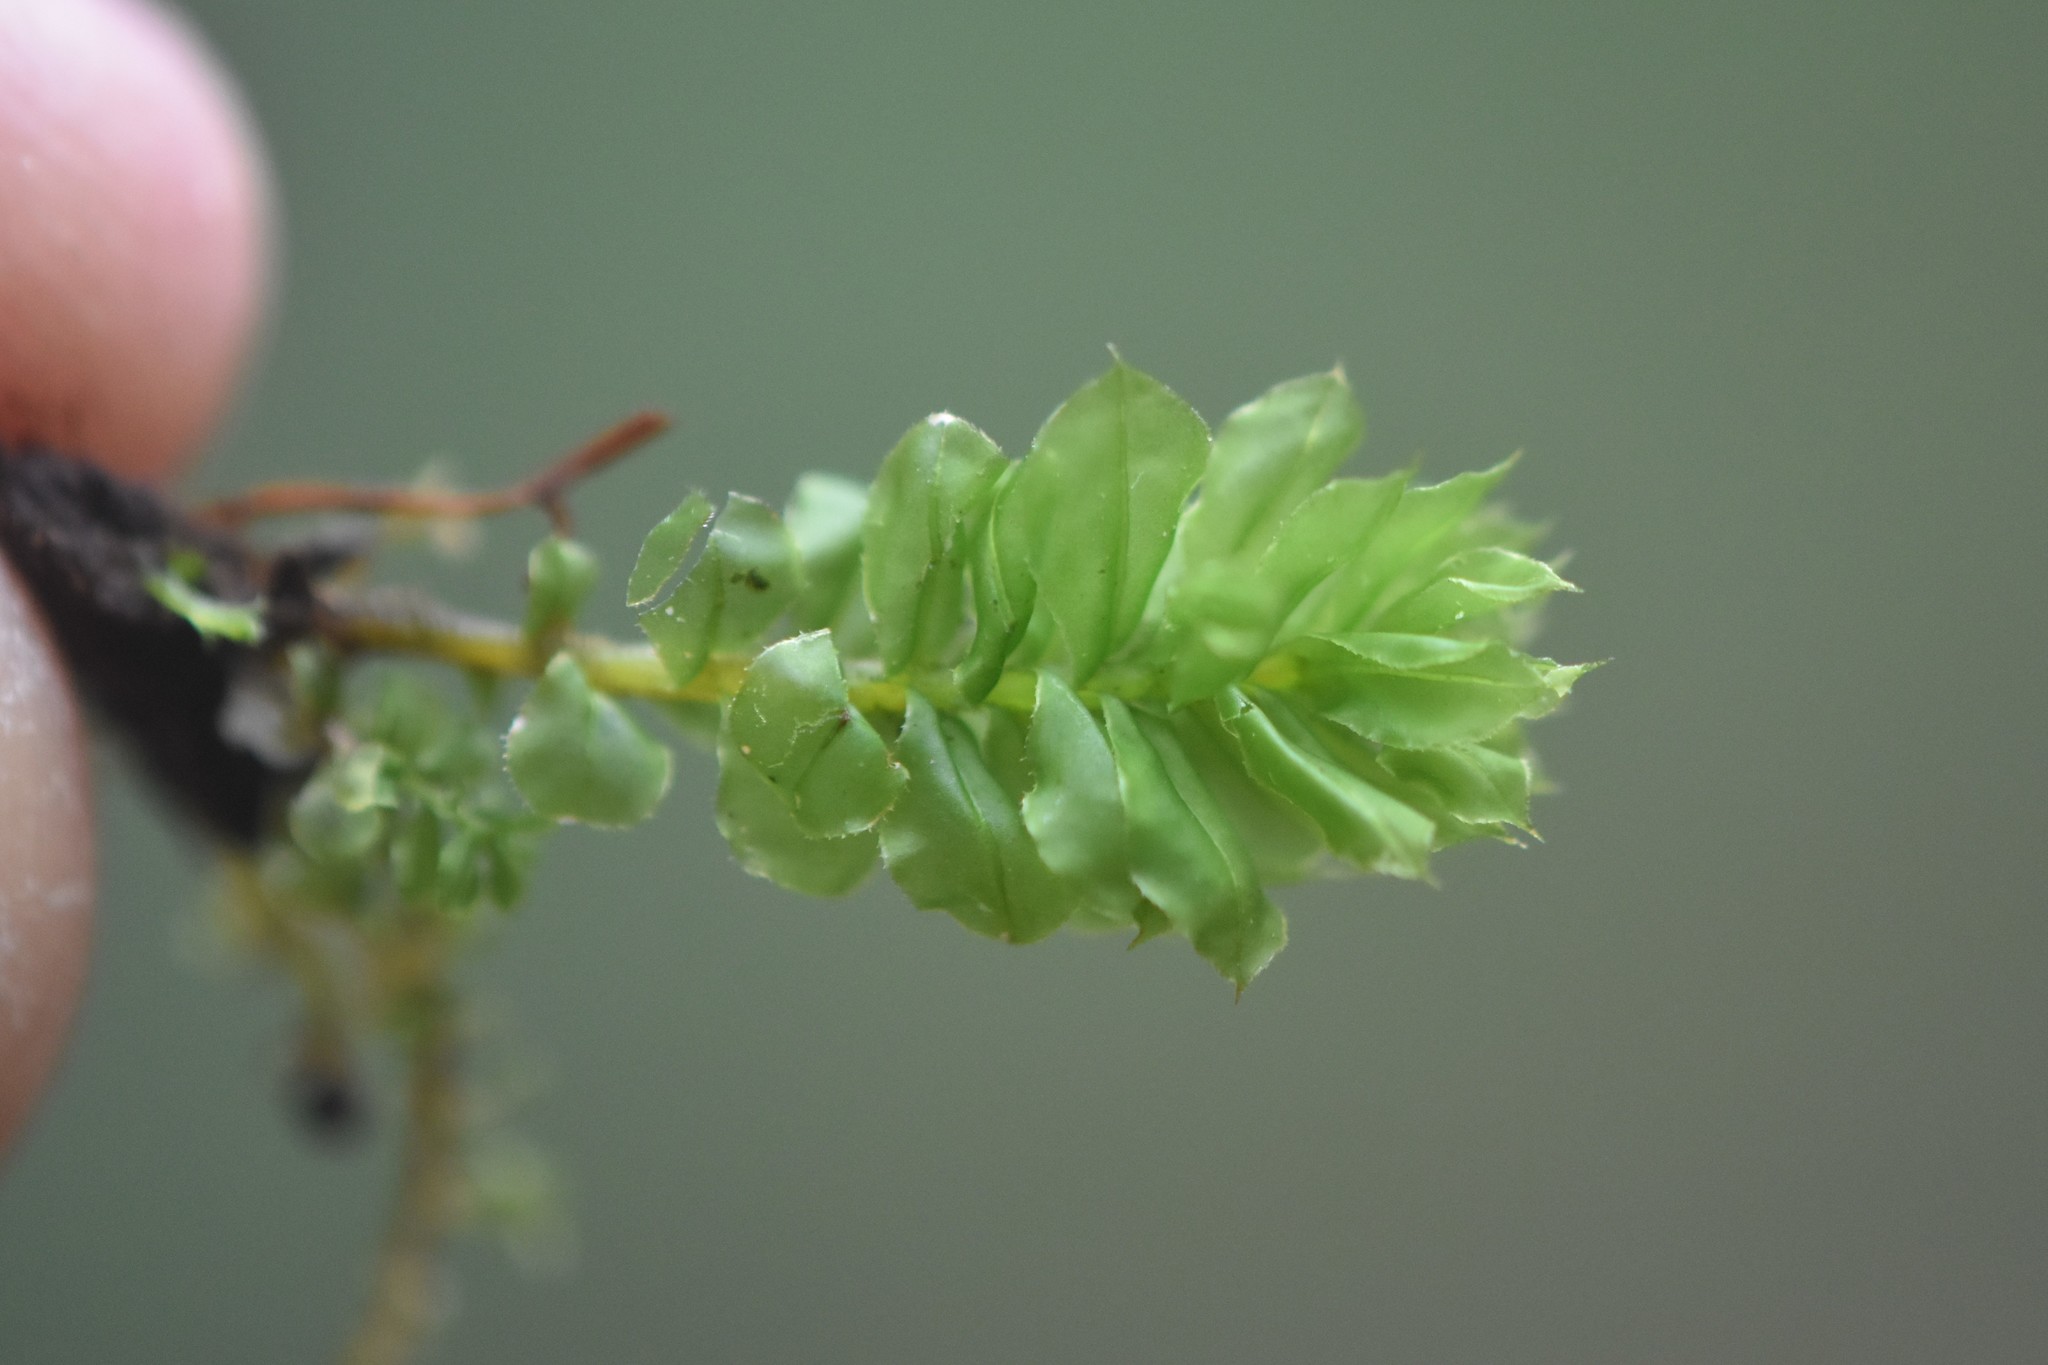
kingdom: Plantae
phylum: Bryophyta
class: Bryopsida
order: Bryales
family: Mniaceae
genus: Plagiomnium
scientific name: Plagiomnium venustum
